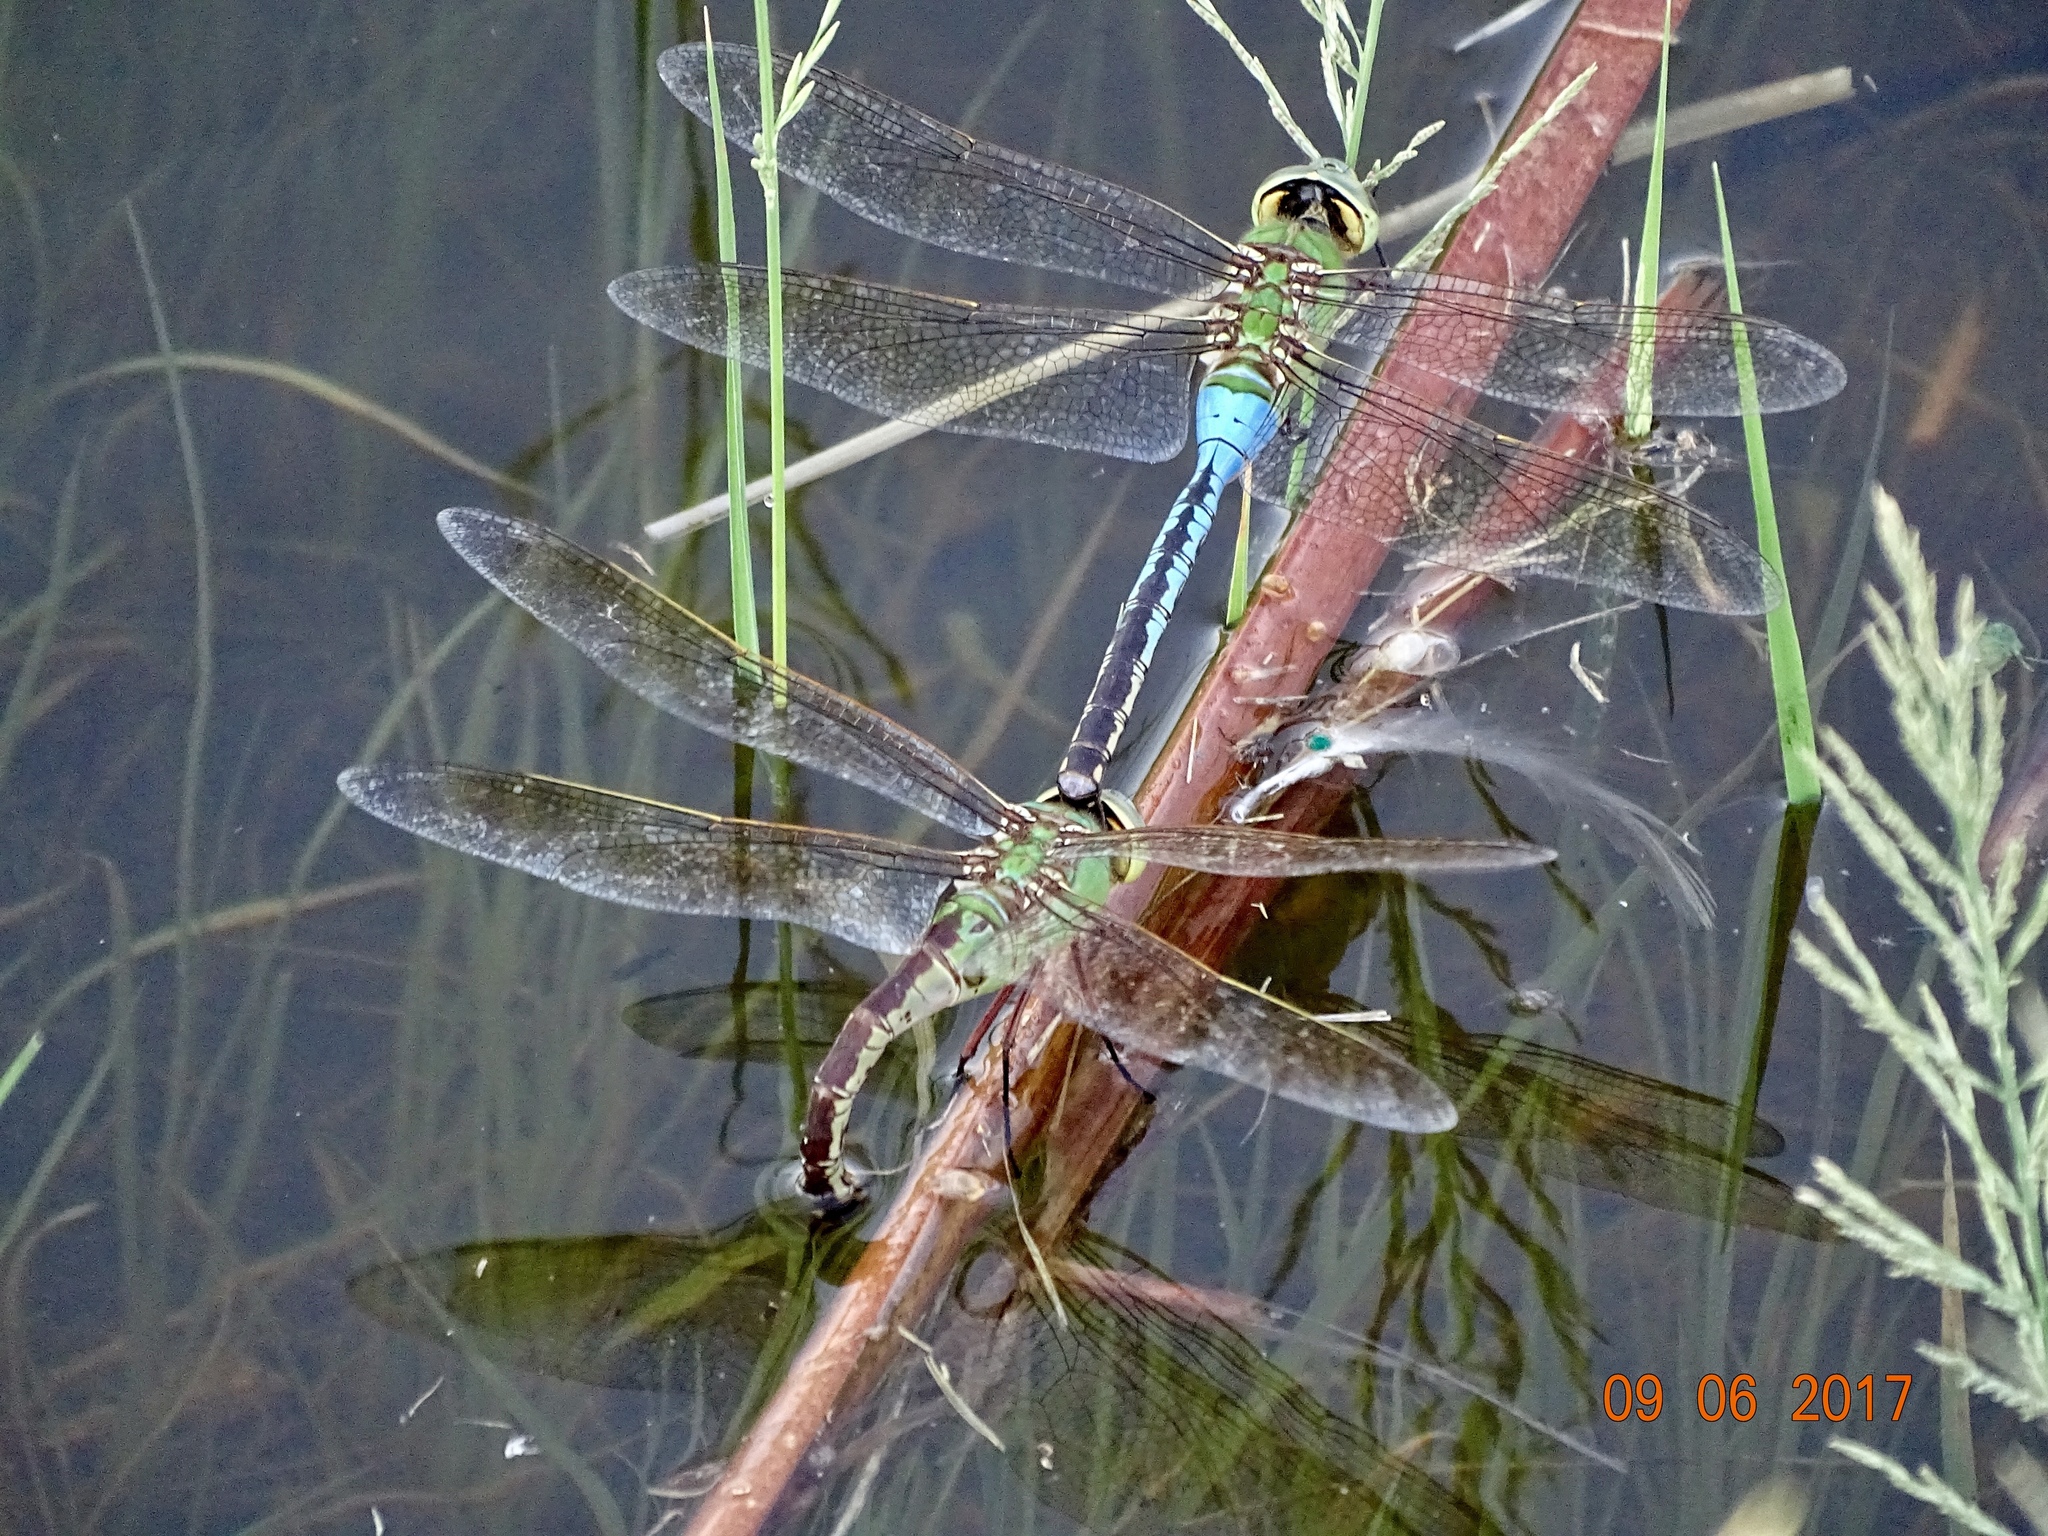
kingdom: Animalia
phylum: Arthropoda
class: Insecta
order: Odonata
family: Aeshnidae
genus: Anax
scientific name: Anax junius
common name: Common green darner
